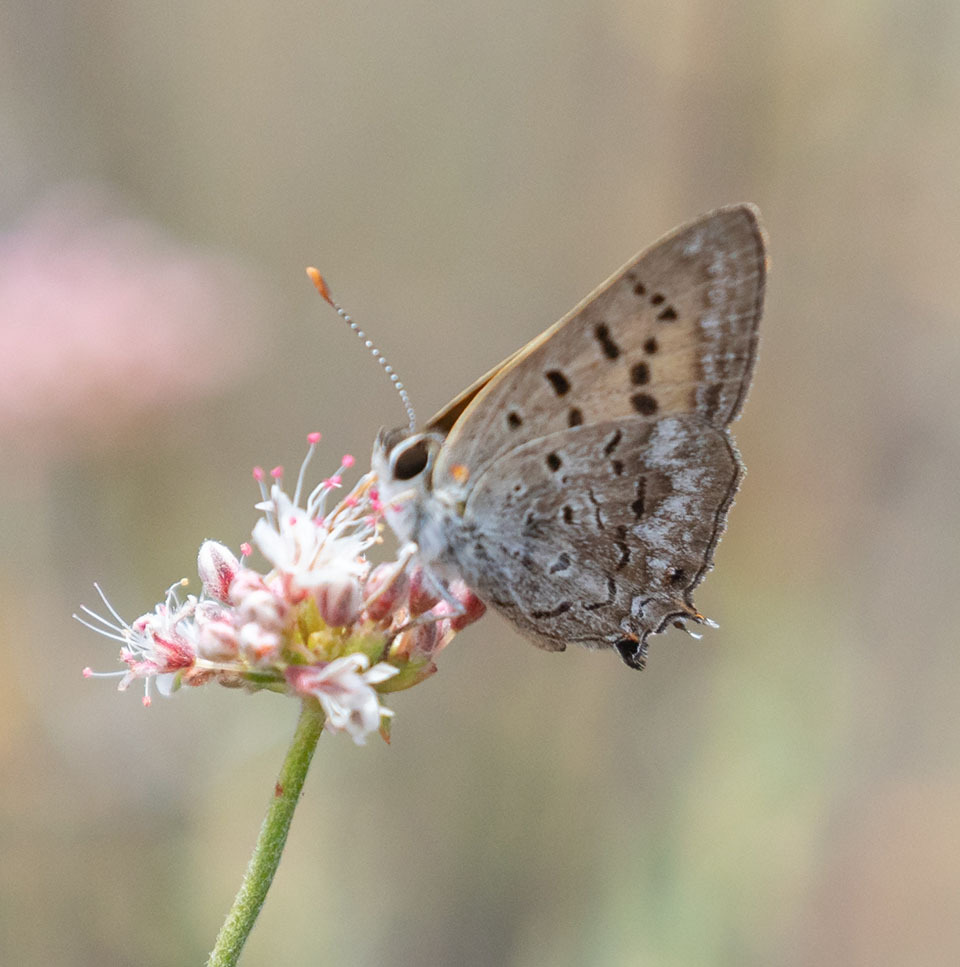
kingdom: Animalia
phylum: Arthropoda
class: Insecta
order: Lepidoptera
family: Lycaenidae
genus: Tharsalea
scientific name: Tharsalea arota
